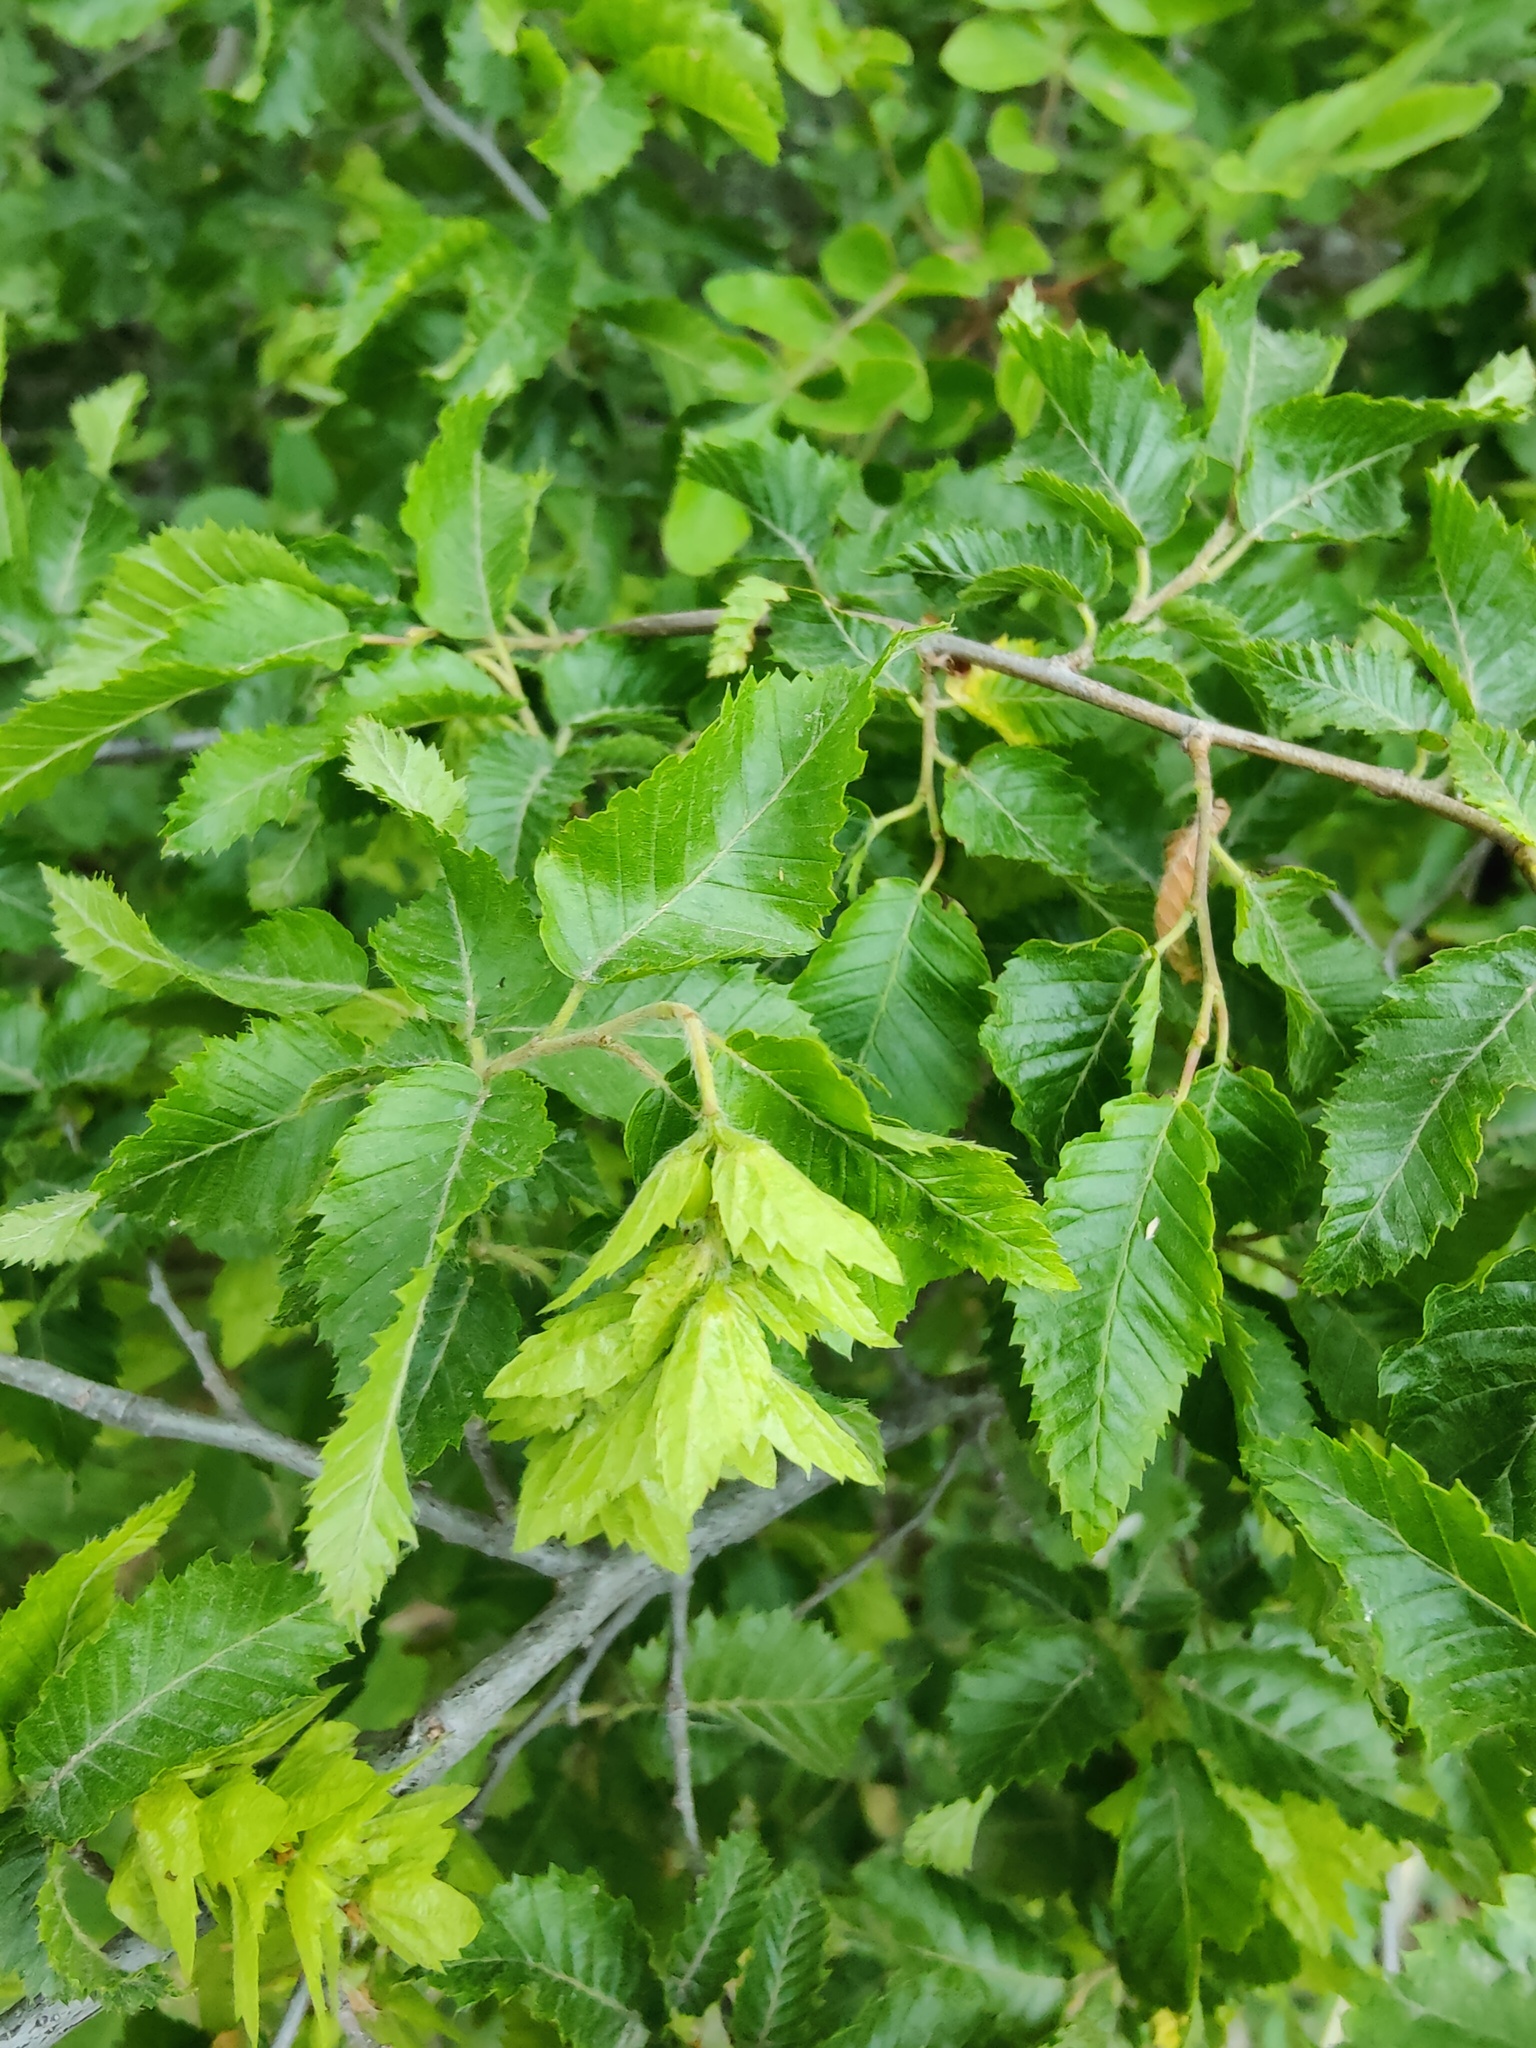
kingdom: Plantae
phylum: Tracheophyta
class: Magnoliopsida
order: Fagales
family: Betulaceae
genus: Carpinus
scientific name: Carpinus orientalis
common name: Eastern hornbeam
